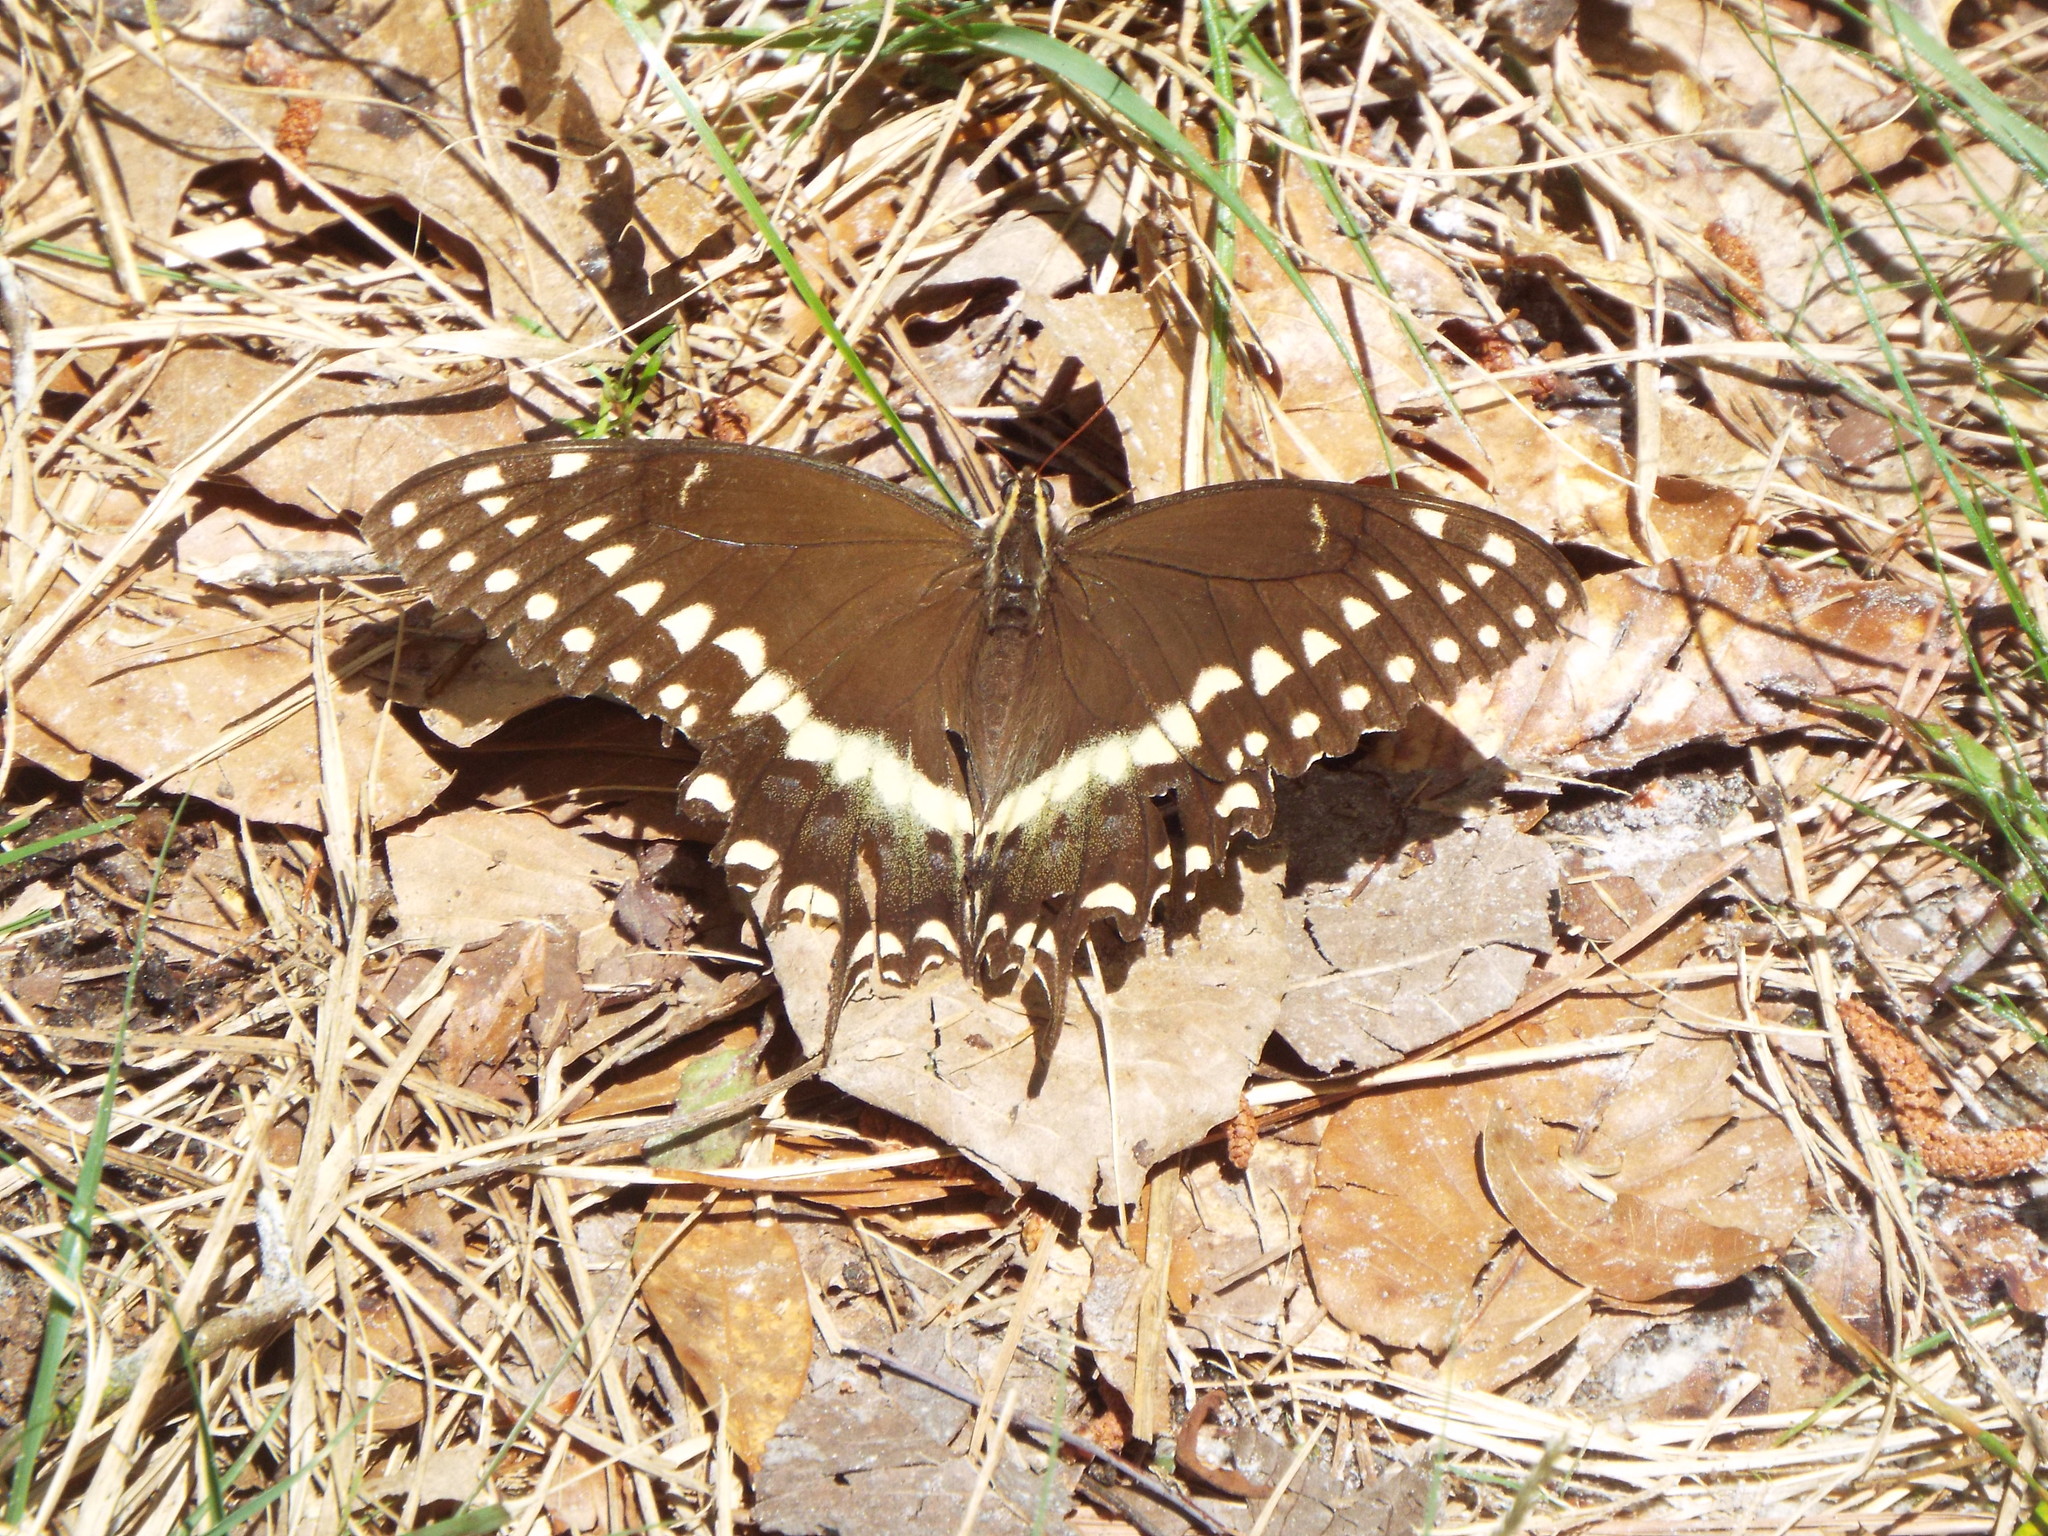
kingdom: Animalia
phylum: Arthropoda
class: Insecta
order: Lepidoptera
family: Papilionidae
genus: Papilio
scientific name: Papilio palamedes
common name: Palamedes swallowtail
